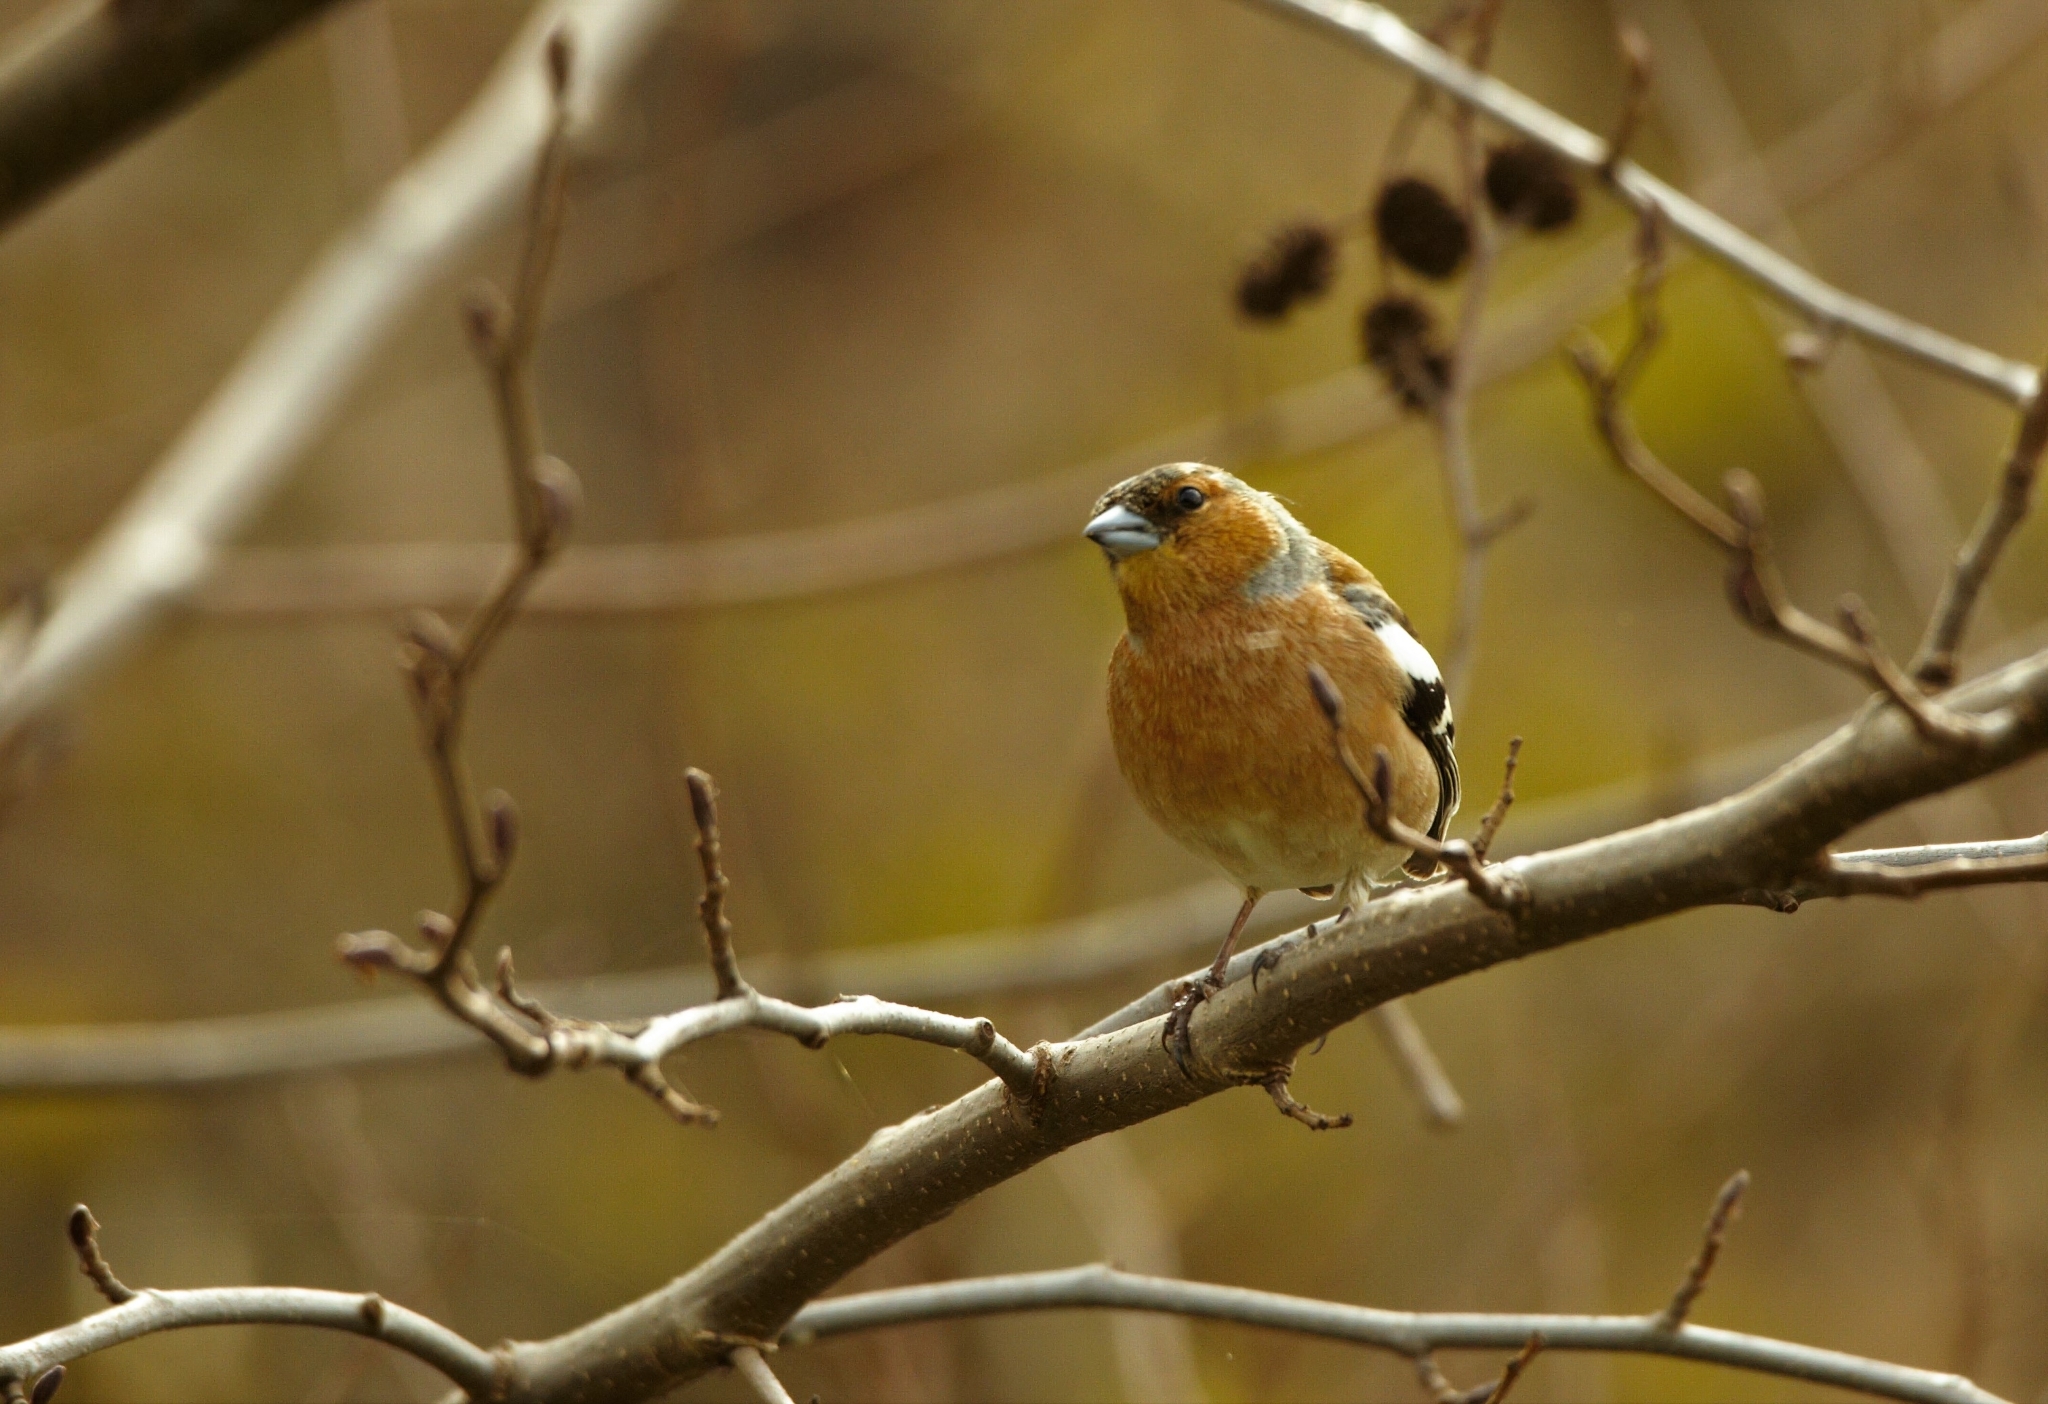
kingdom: Animalia
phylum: Chordata
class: Aves
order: Passeriformes
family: Fringillidae
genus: Fringilla
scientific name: Fringilla coelebs
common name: Common chaffinch
